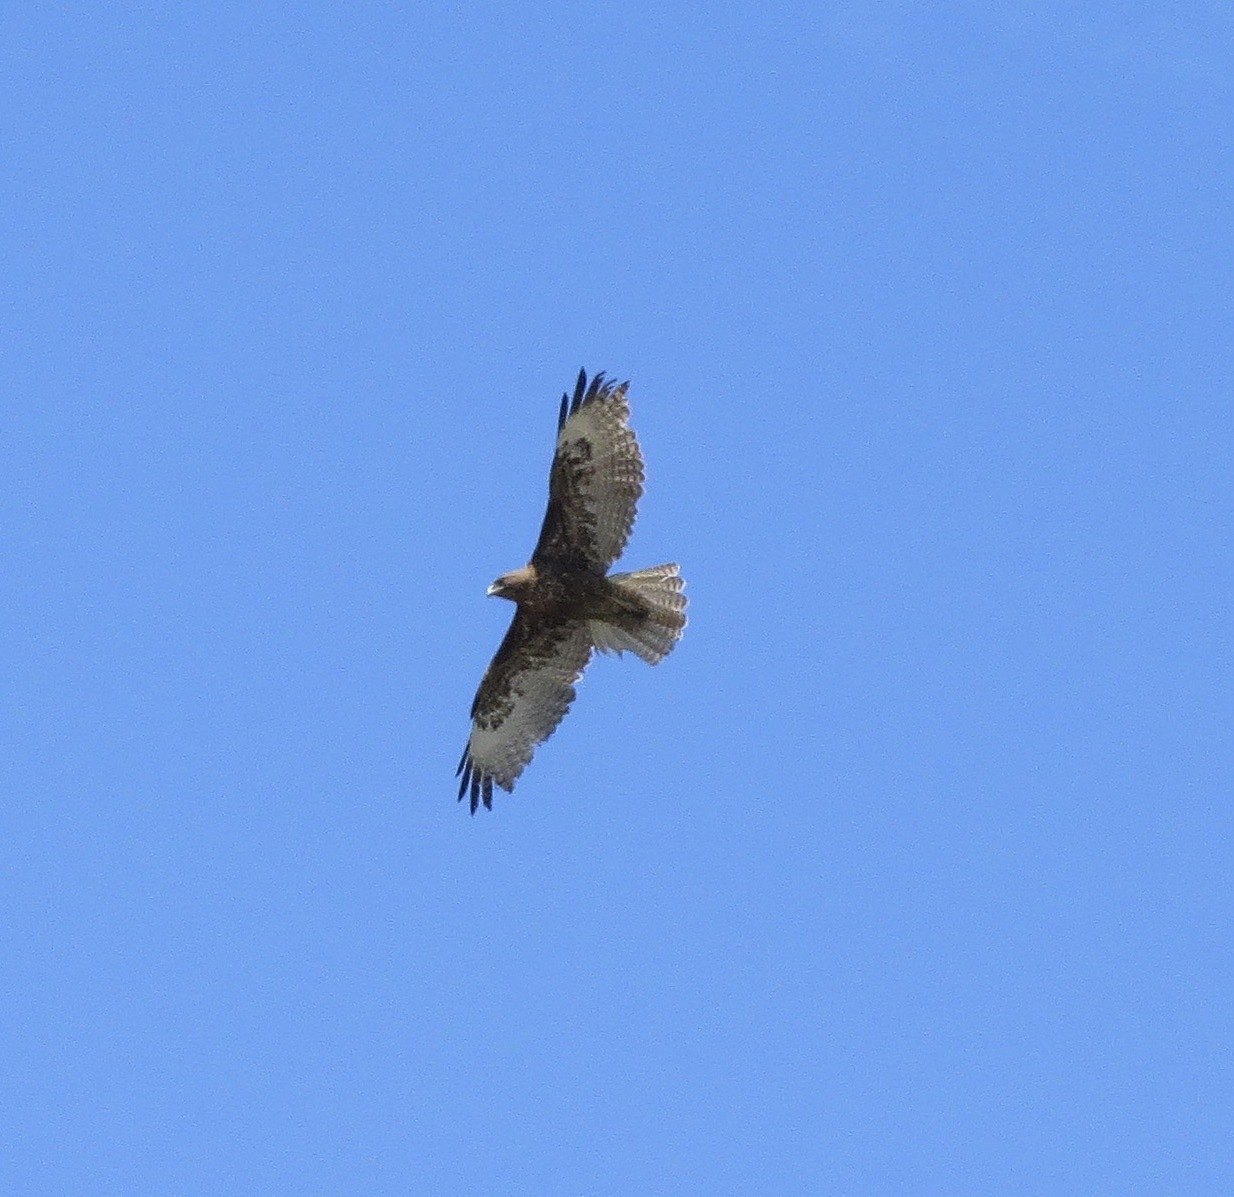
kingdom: Animalia
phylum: Chordata
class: Aves
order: Accipitriformes
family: Accipitridae
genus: Buteo
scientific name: Buteo jamaicensis
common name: Red-tailed hawk
